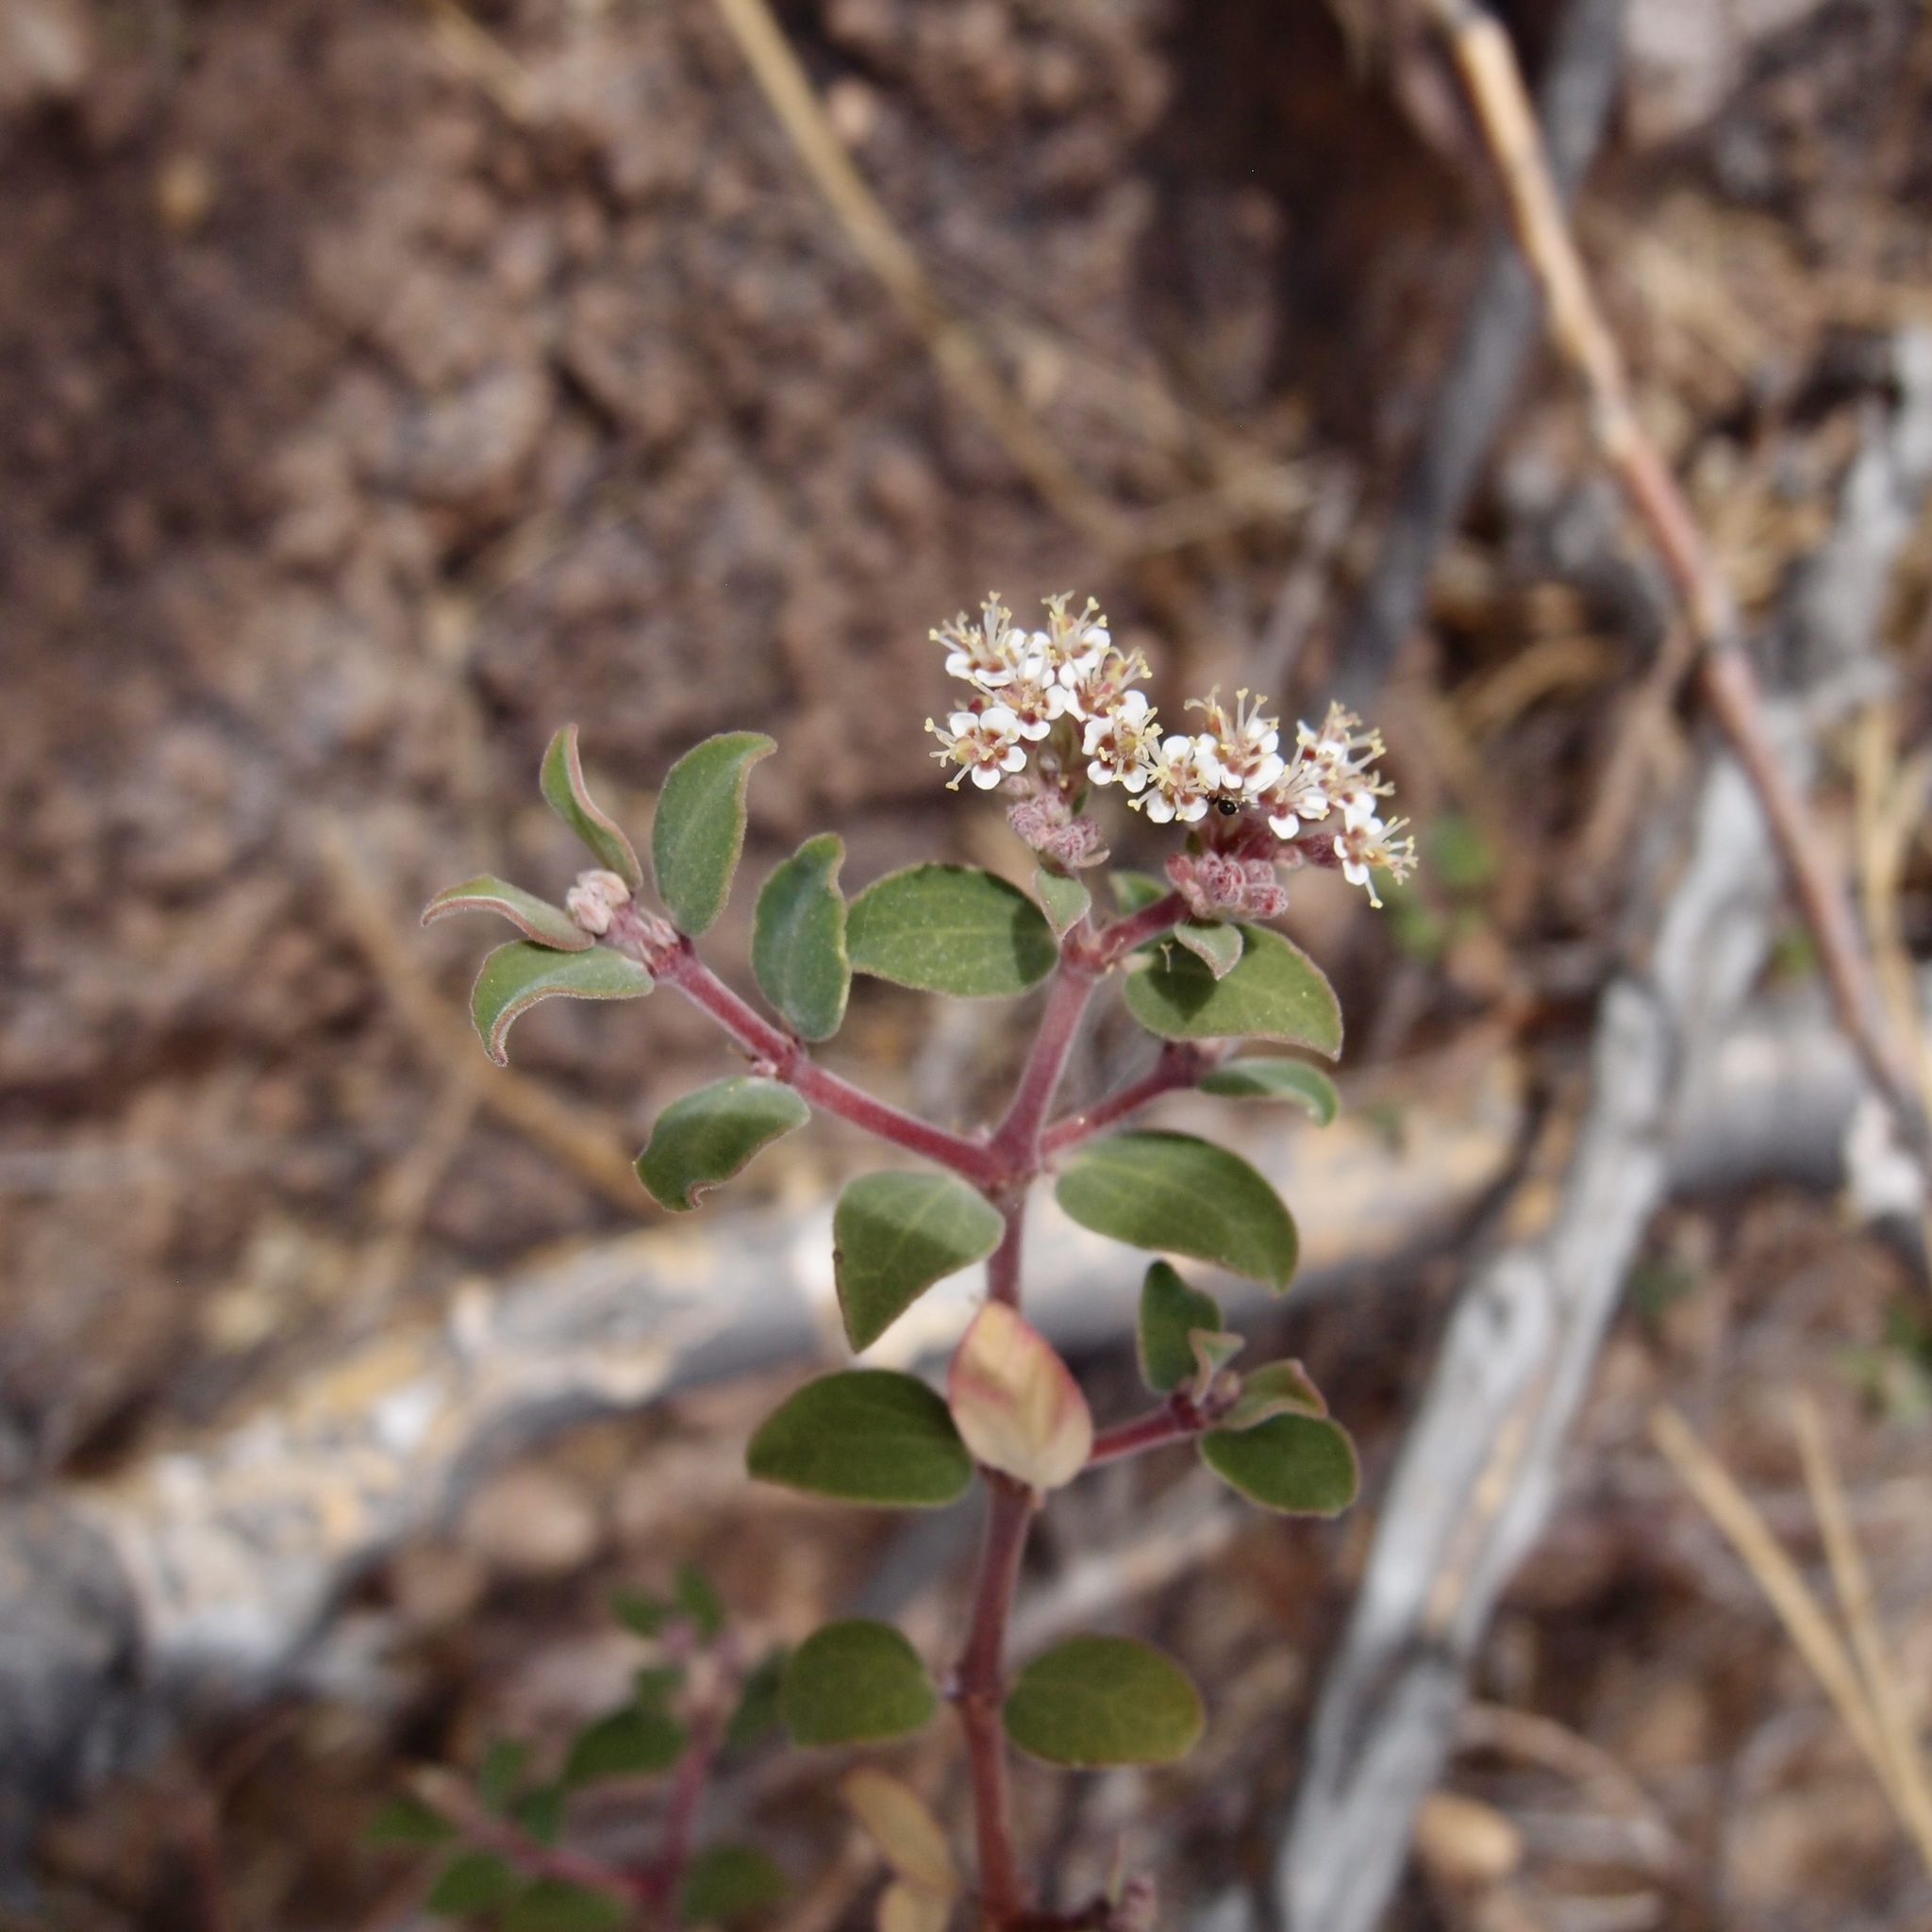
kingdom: Plantae
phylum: Tracheophyta
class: Magnoliopsida
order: Malpighiales
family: Euphorbiaceae
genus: Euphorbia
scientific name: Euphorbia tomentulosa
